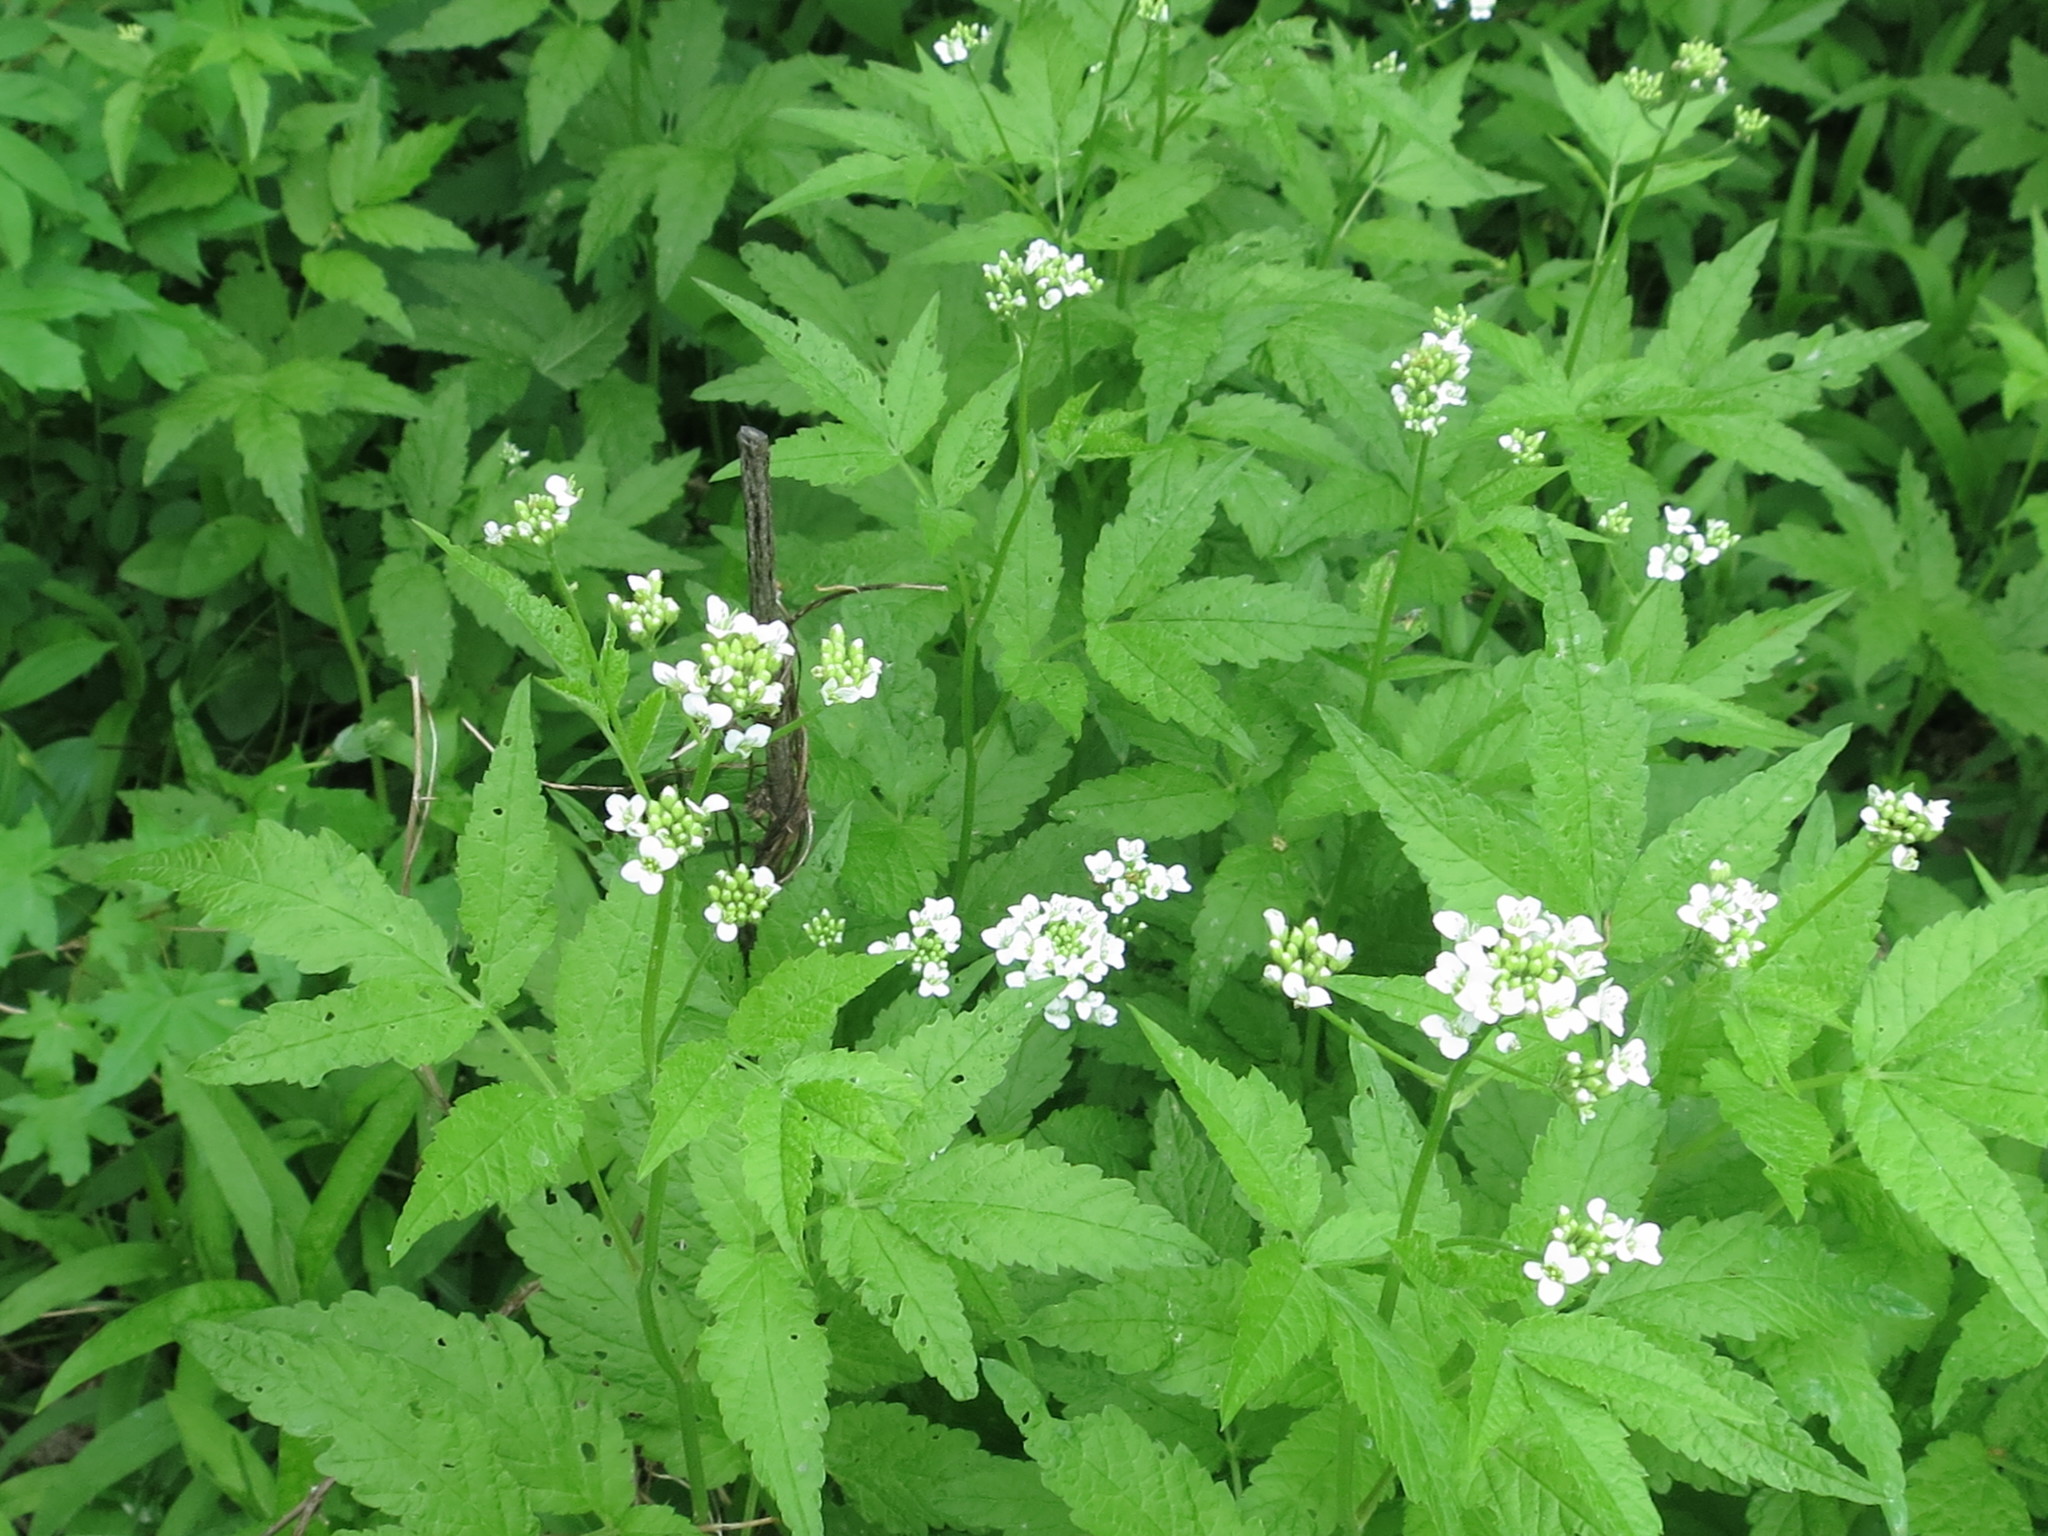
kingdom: Plantae
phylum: Tracheophyta
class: Magnoliopsida
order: Brassicales
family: Brassicaceae
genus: Cardamine
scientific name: Cardamine leucantha
